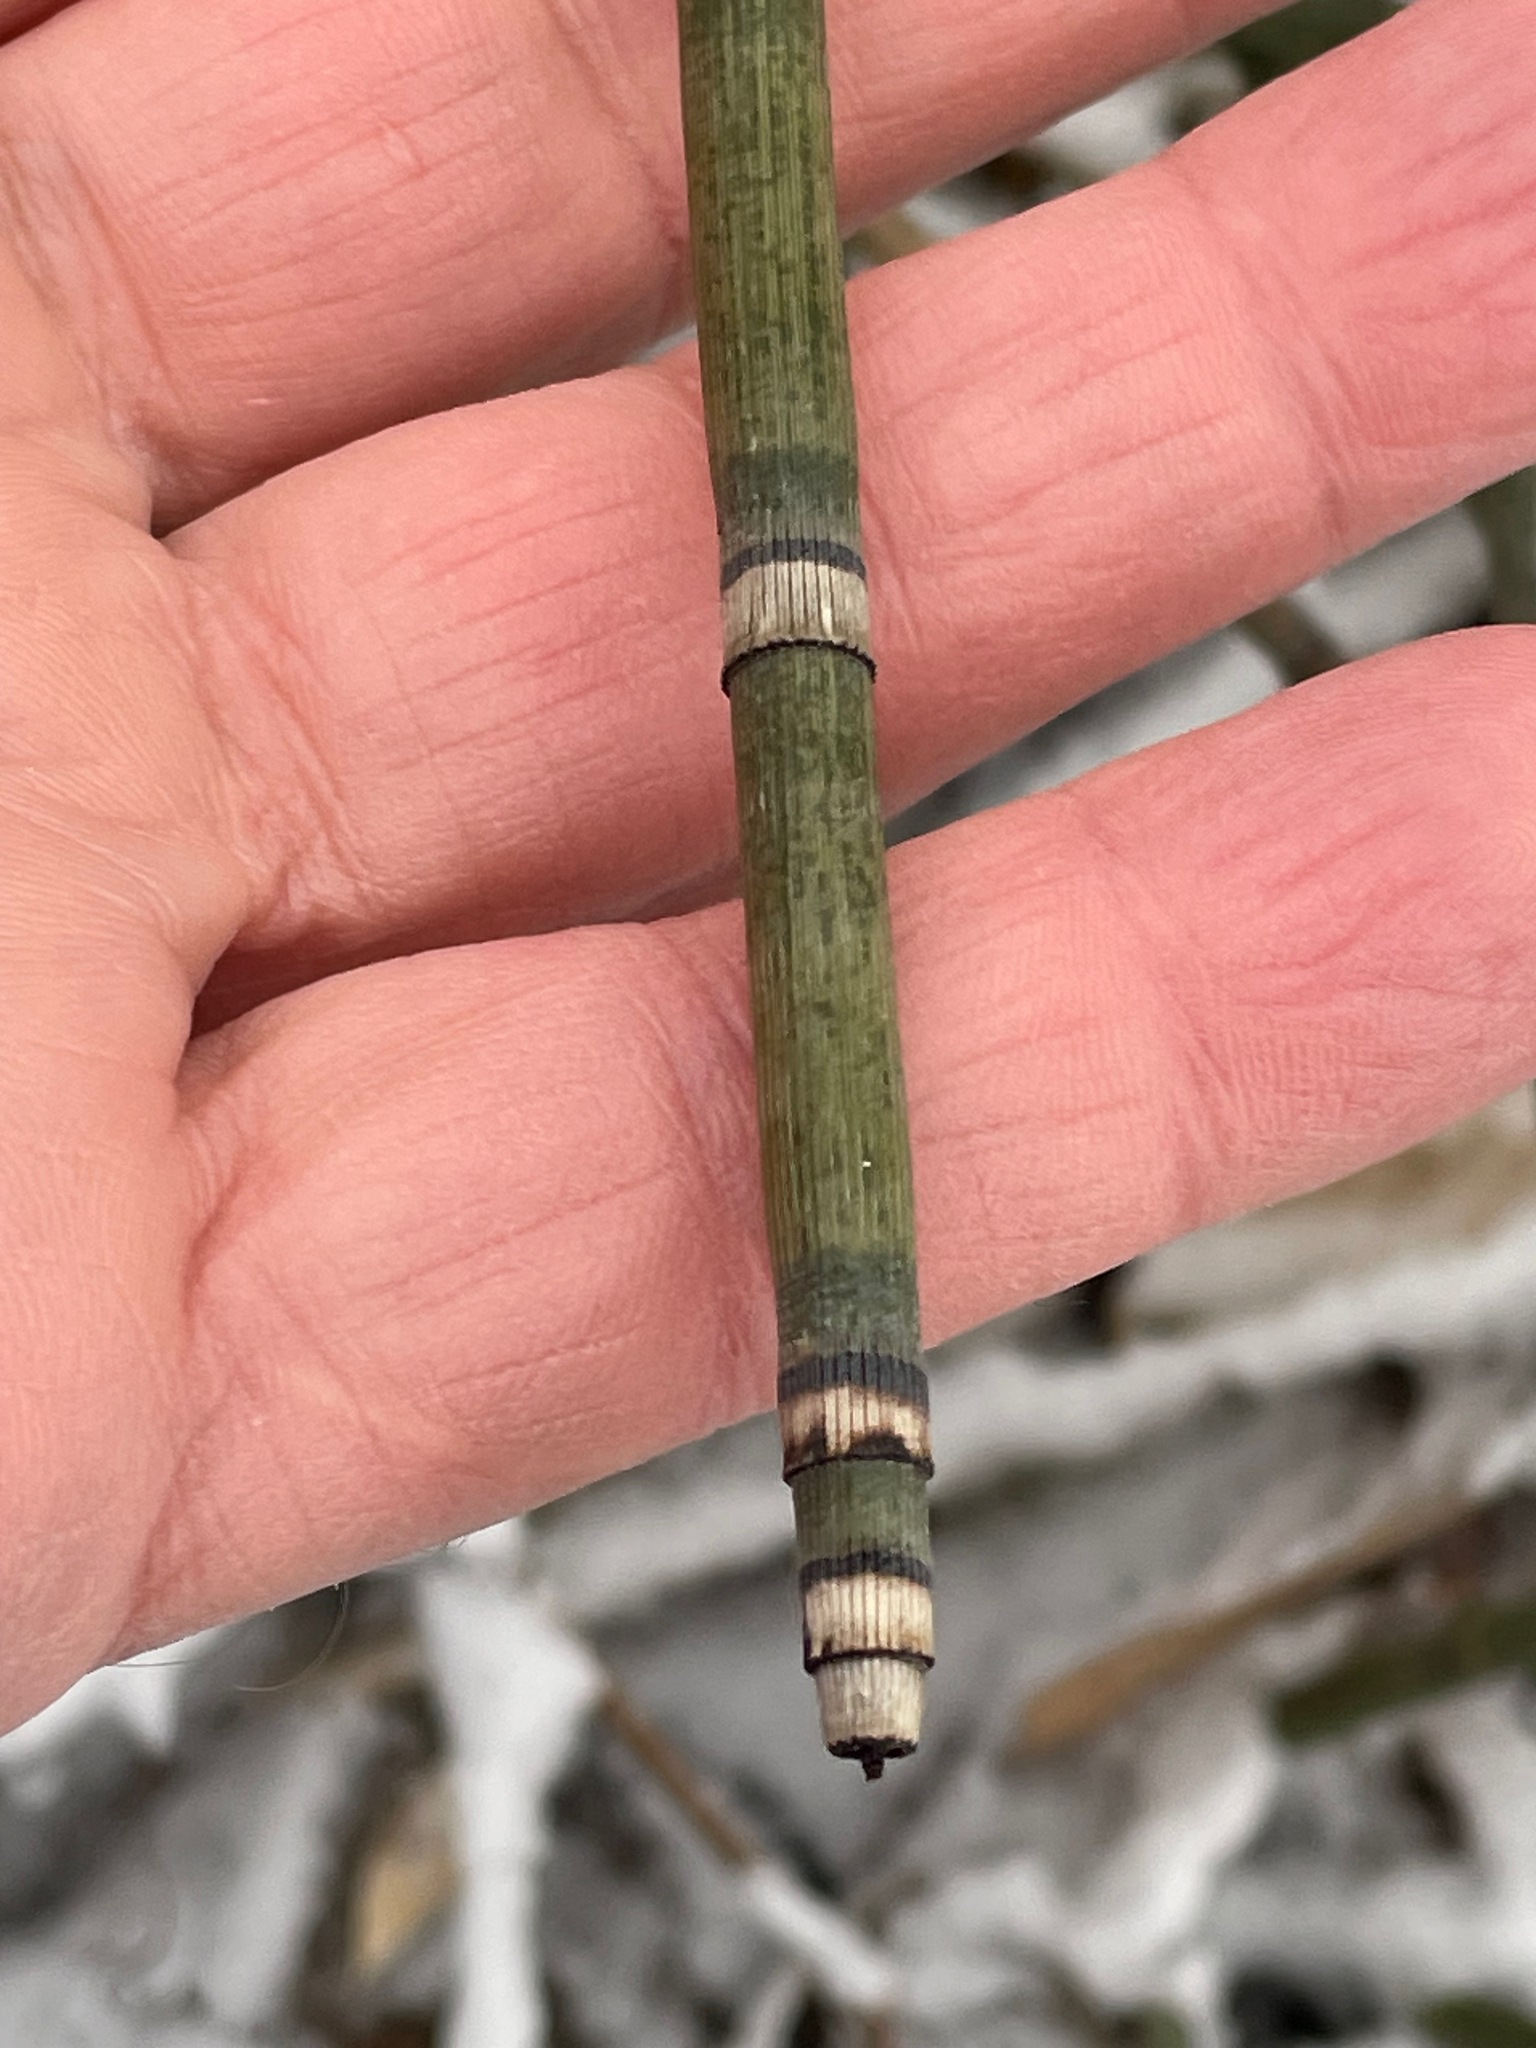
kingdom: Plantae
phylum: Tracheophyta
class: Polypodiopsida
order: Equisetales
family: Equisetaceae
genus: Equisetum
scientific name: Equisetum hyemale
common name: Rough horsetail
